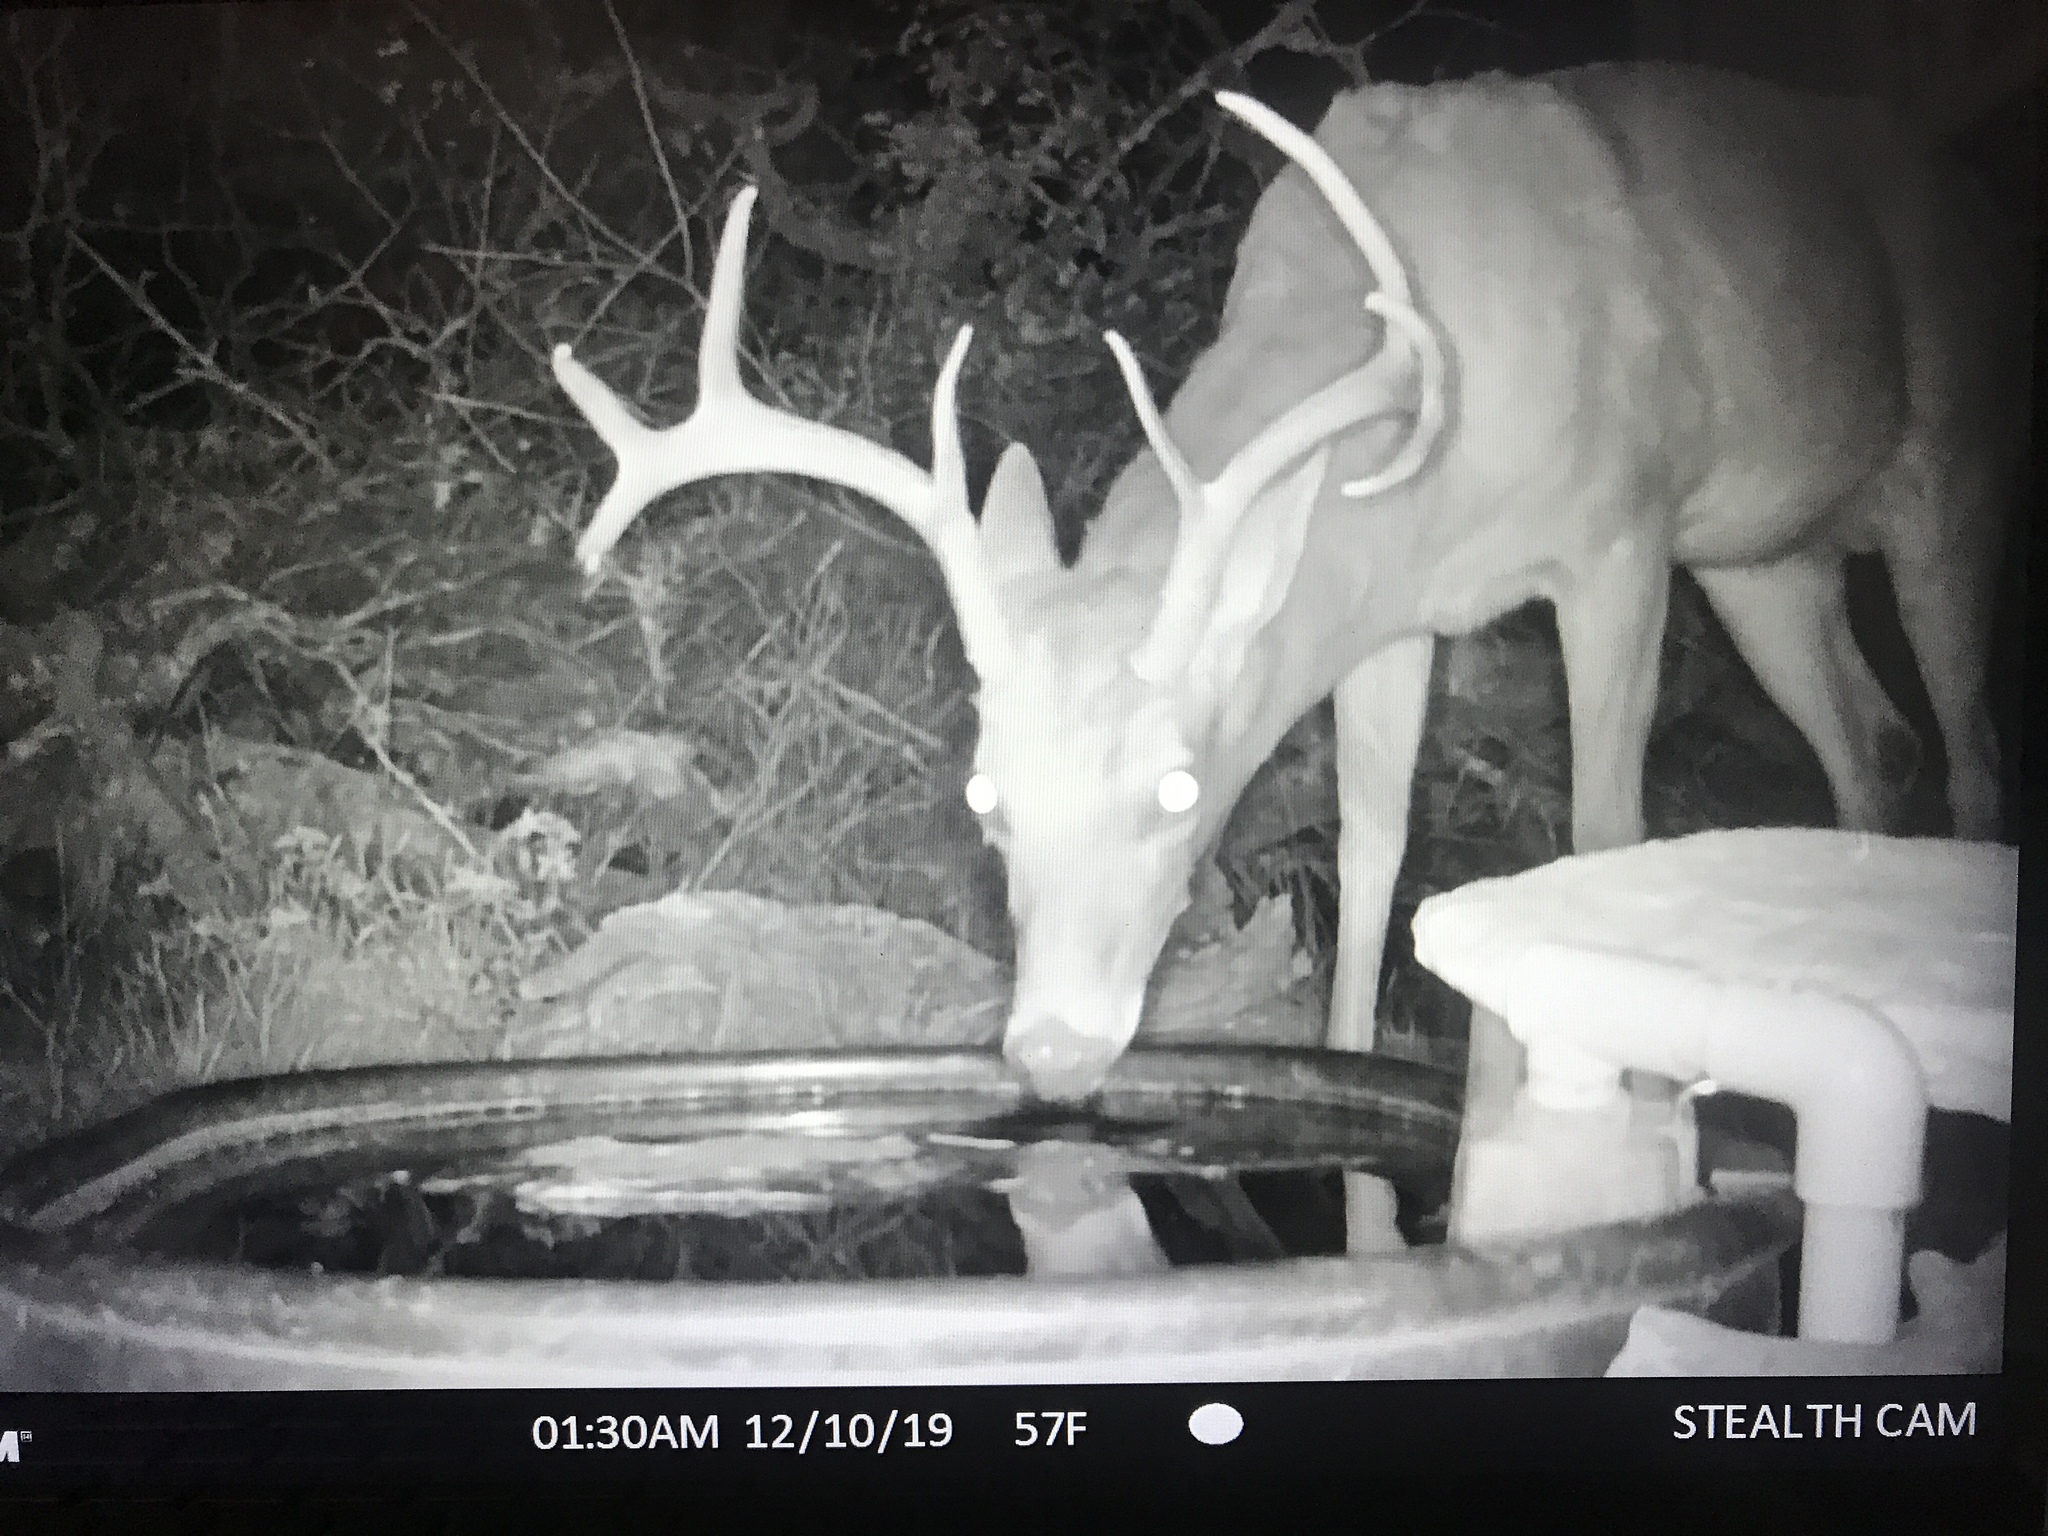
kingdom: Animalia
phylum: Chordata
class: Mammalia
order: Artiodactyla
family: Cervidae
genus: Odocoileus
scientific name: Odocoileus virginianus
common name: White-tailed deer
